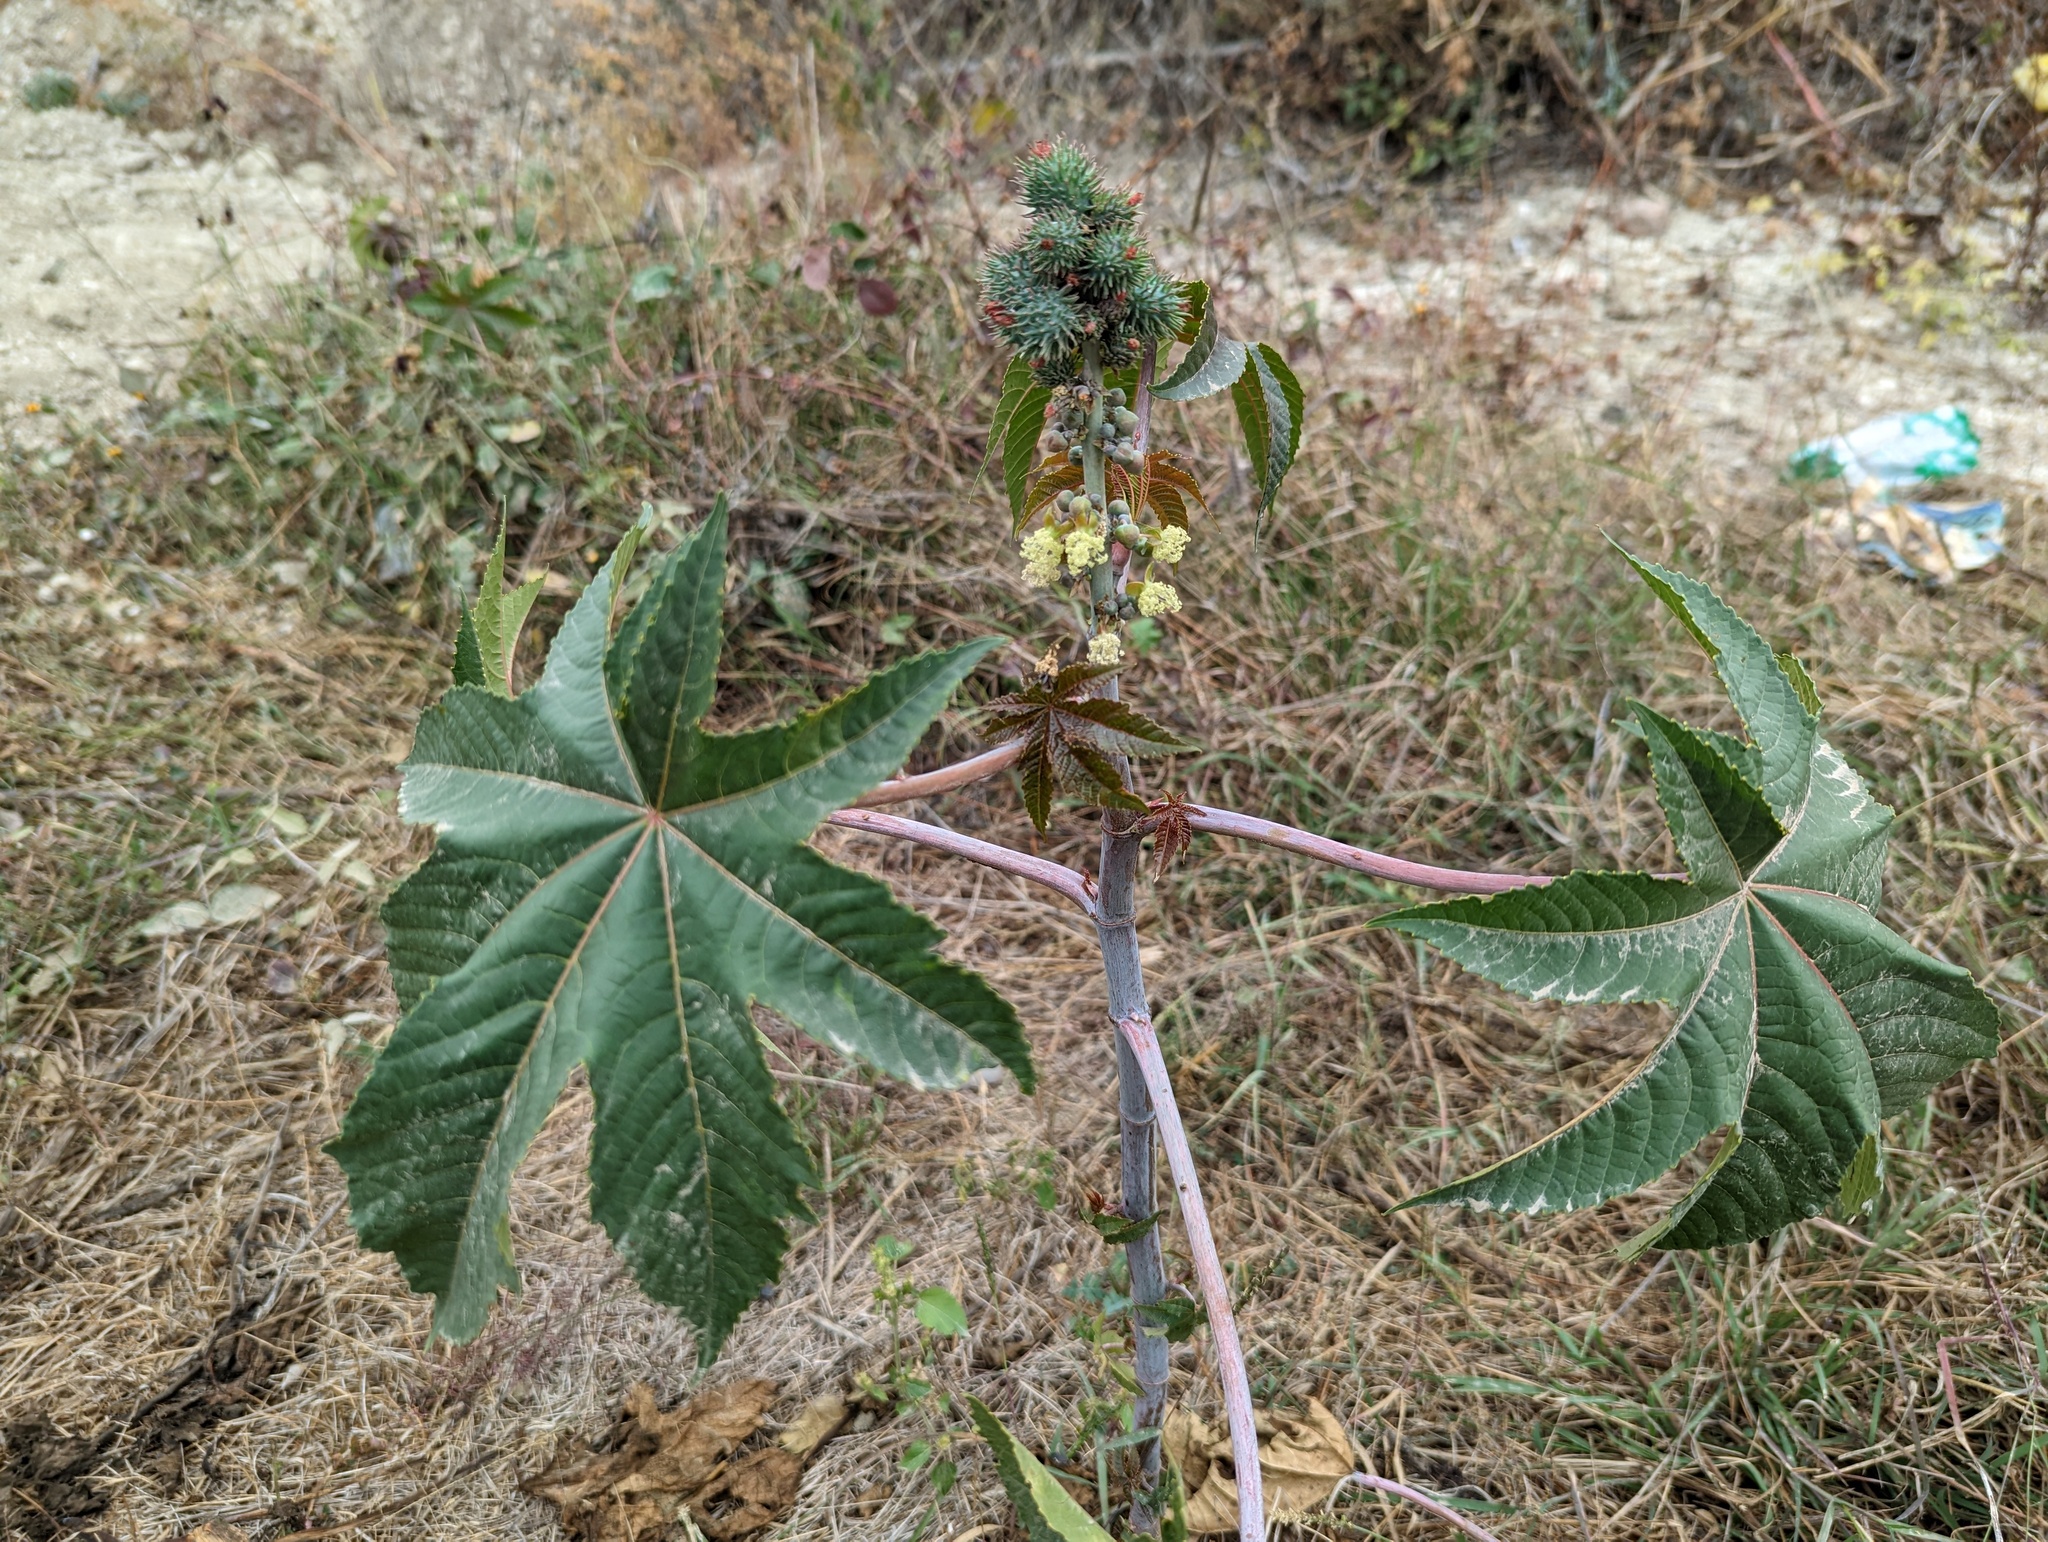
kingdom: Plantae
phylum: Tracheophyta
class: Magnoliopsida
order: Malpighiales
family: Euphorbiaceae
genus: Ricinus
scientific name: Ricinus communis
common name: Castor-oil-plant
